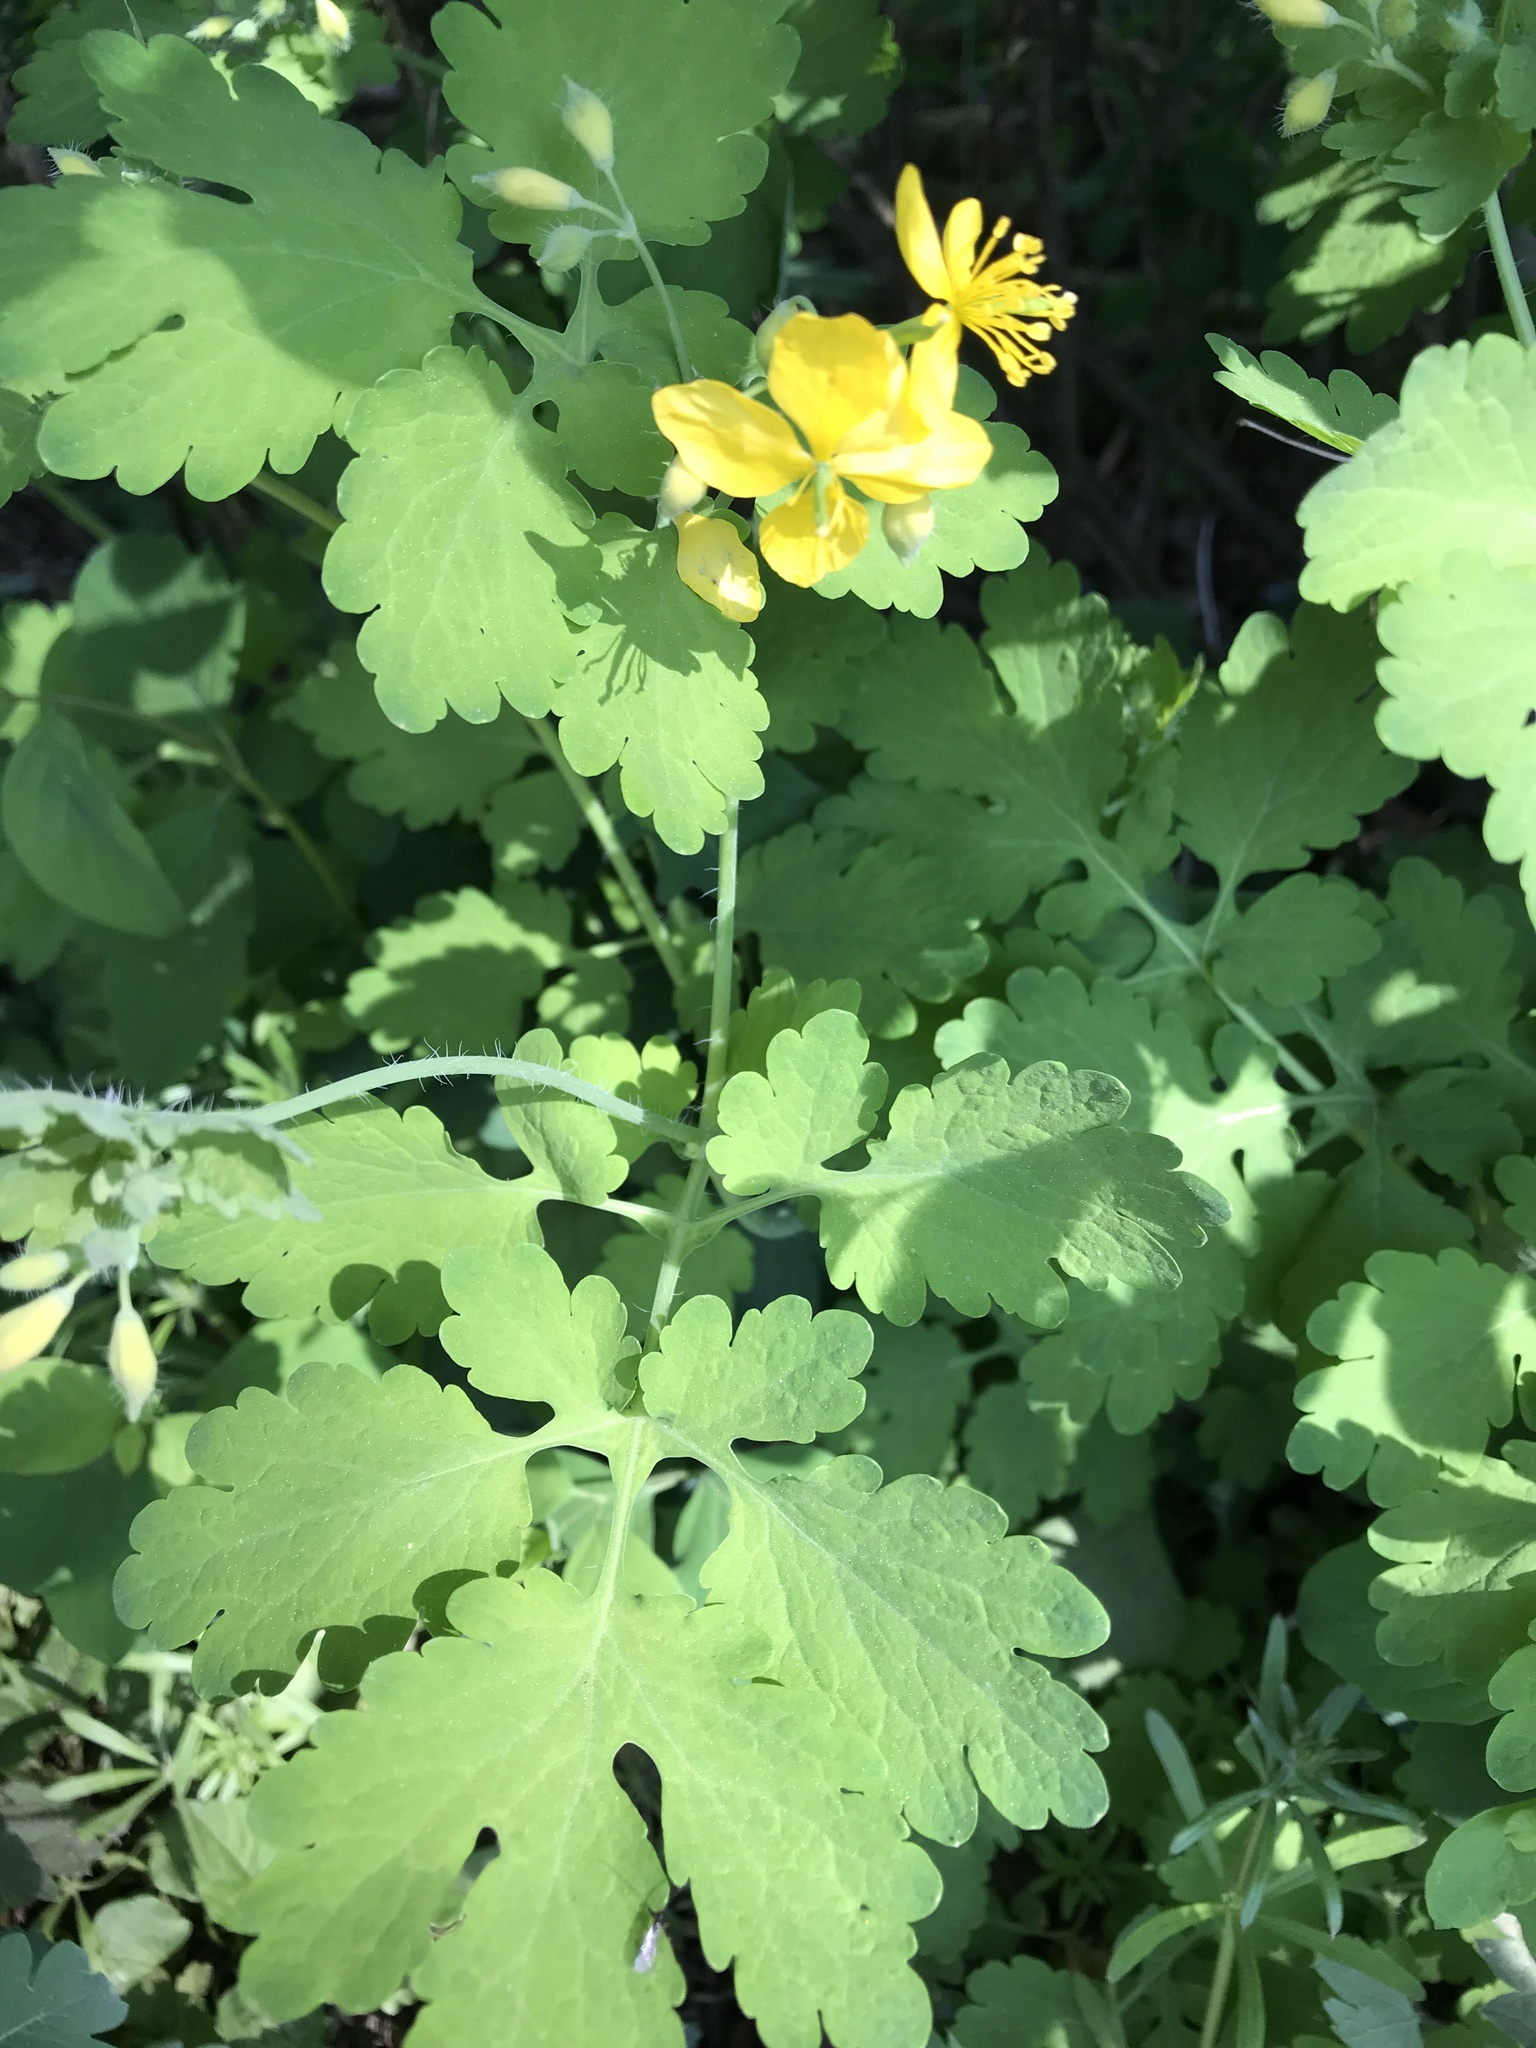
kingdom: Plantae
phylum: Tracheophyta
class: Magnoliopsida
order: Ranunculales
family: Papaveraceae
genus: Chelidonium
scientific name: Chelidonium majus
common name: Greater celandine
